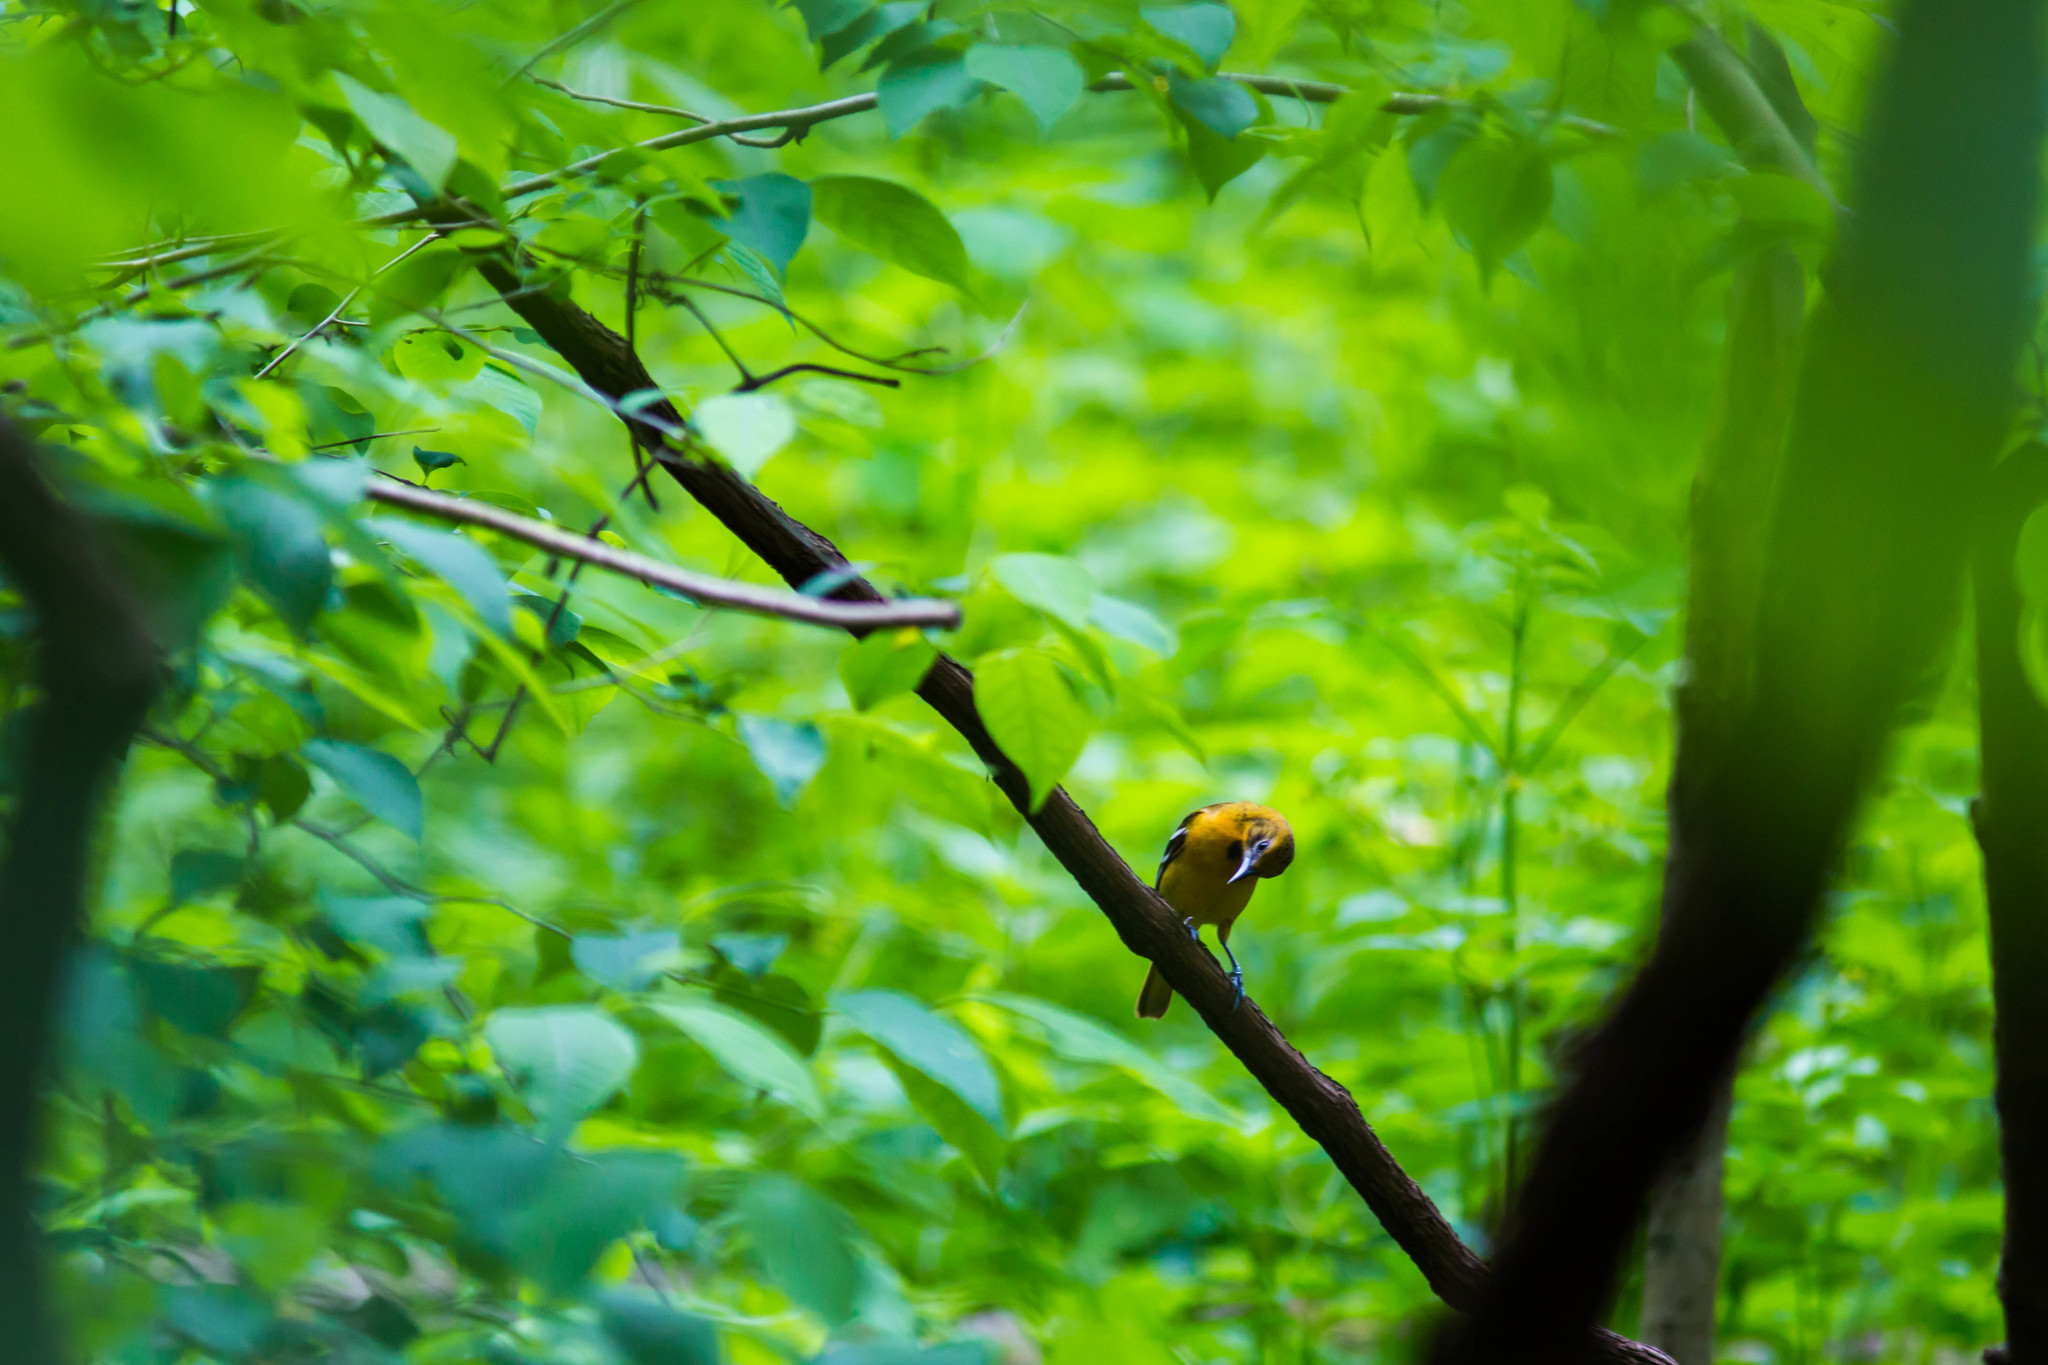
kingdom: Animalia
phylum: Chordata
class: Aves
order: Passeriformes
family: Icteridae
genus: Icterus
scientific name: Icterus galbula
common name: Baltimore oriole
